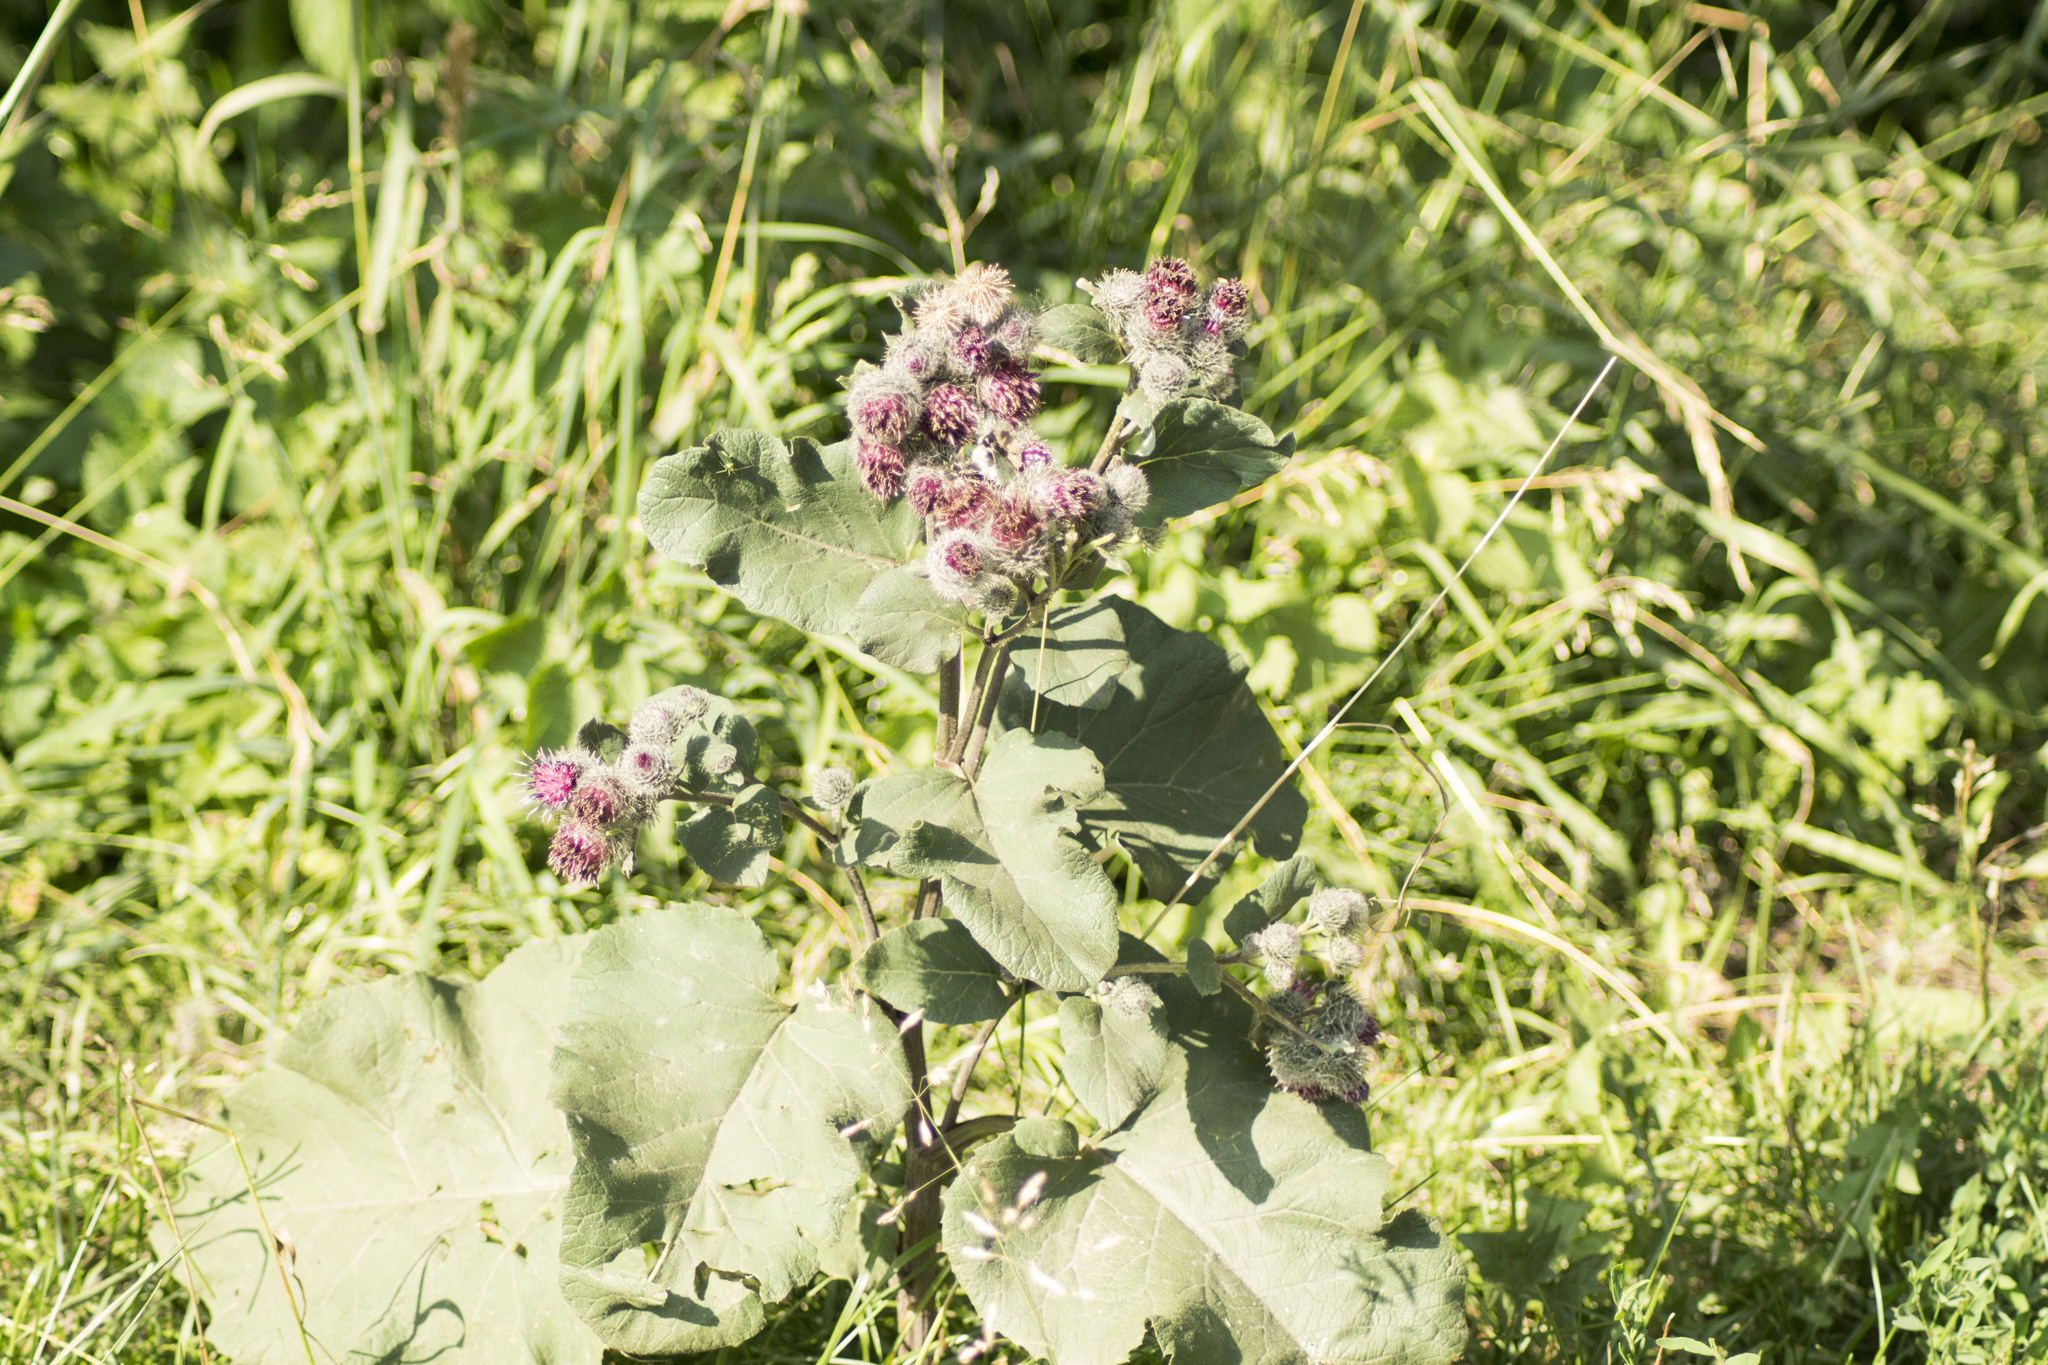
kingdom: Plantae
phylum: Tracheophyta
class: Magnoliopsida
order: Asterales
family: Asteraceae
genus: Arctium
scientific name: Arctium tomentosum
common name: Woolly burdock
